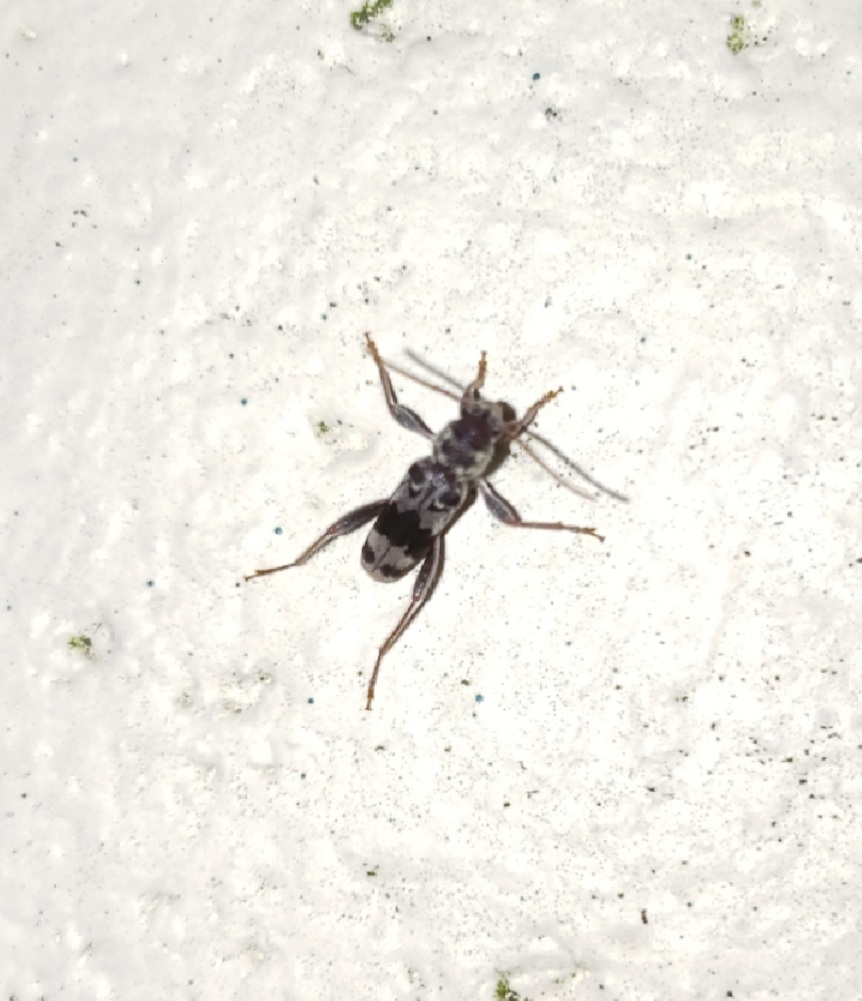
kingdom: Animalia
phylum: Arthropoda
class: Insecta
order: Coleoptera
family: Cerambycidae
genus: Xylotrechus
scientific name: Xylotrechus colonus
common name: Long-horned beetle
